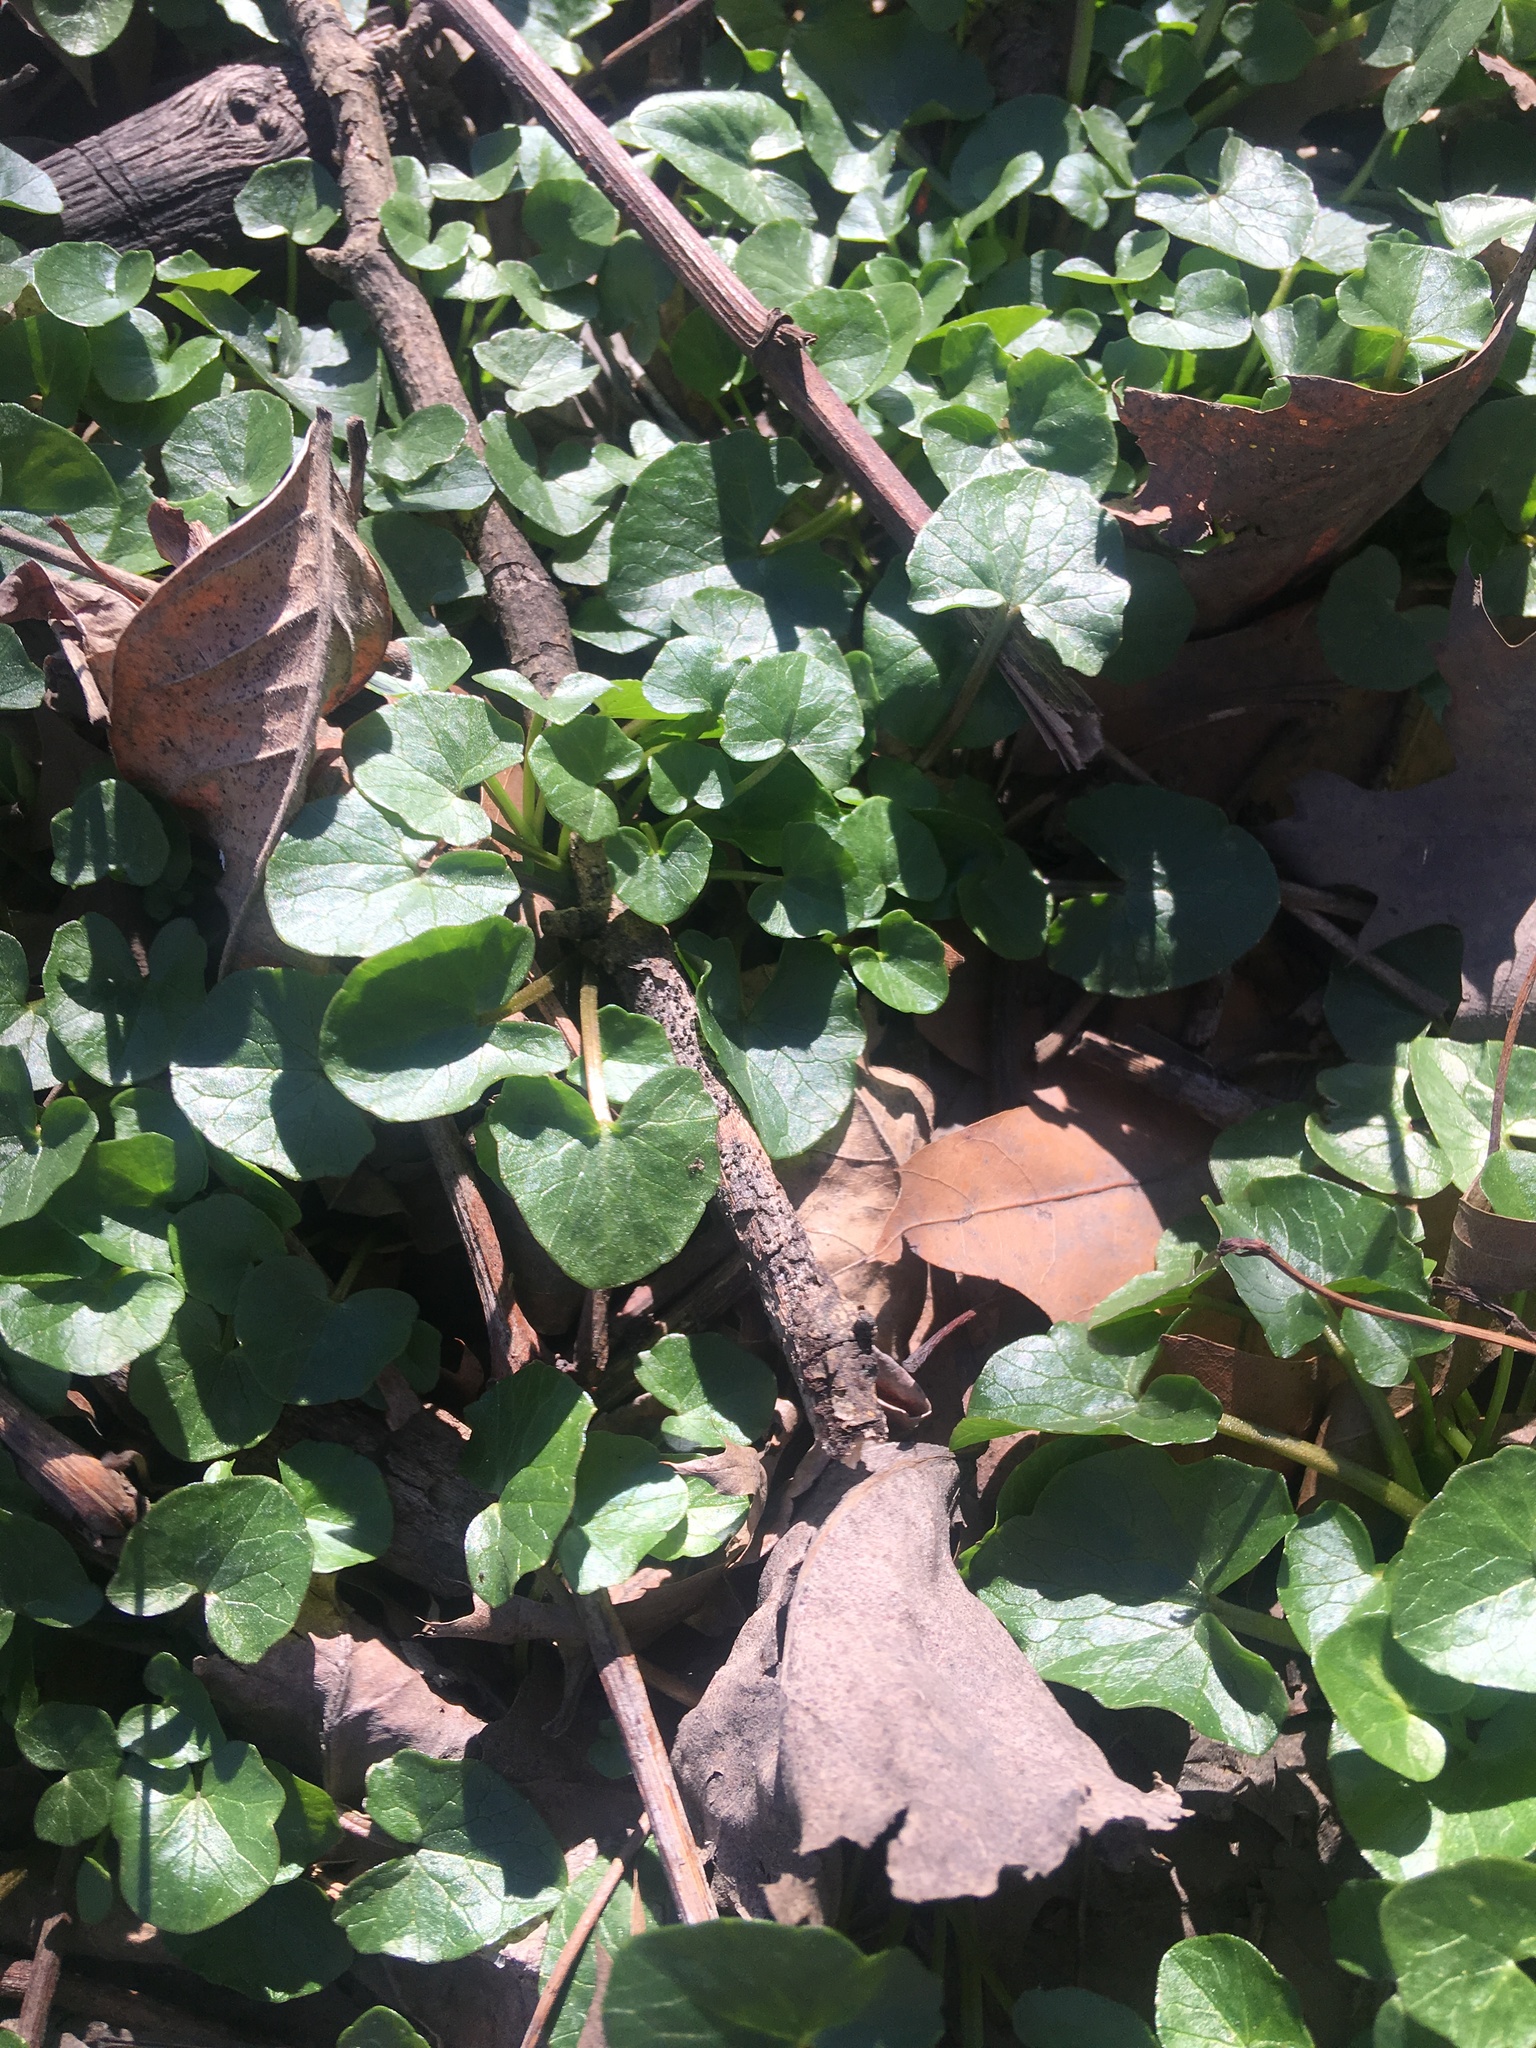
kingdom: Plantae
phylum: Tracheophyta
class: Magnoliopsida
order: Ranunculales
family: Ranunculaceae
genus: Ficaria
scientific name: Ficaria verna
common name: Lesser celandine
